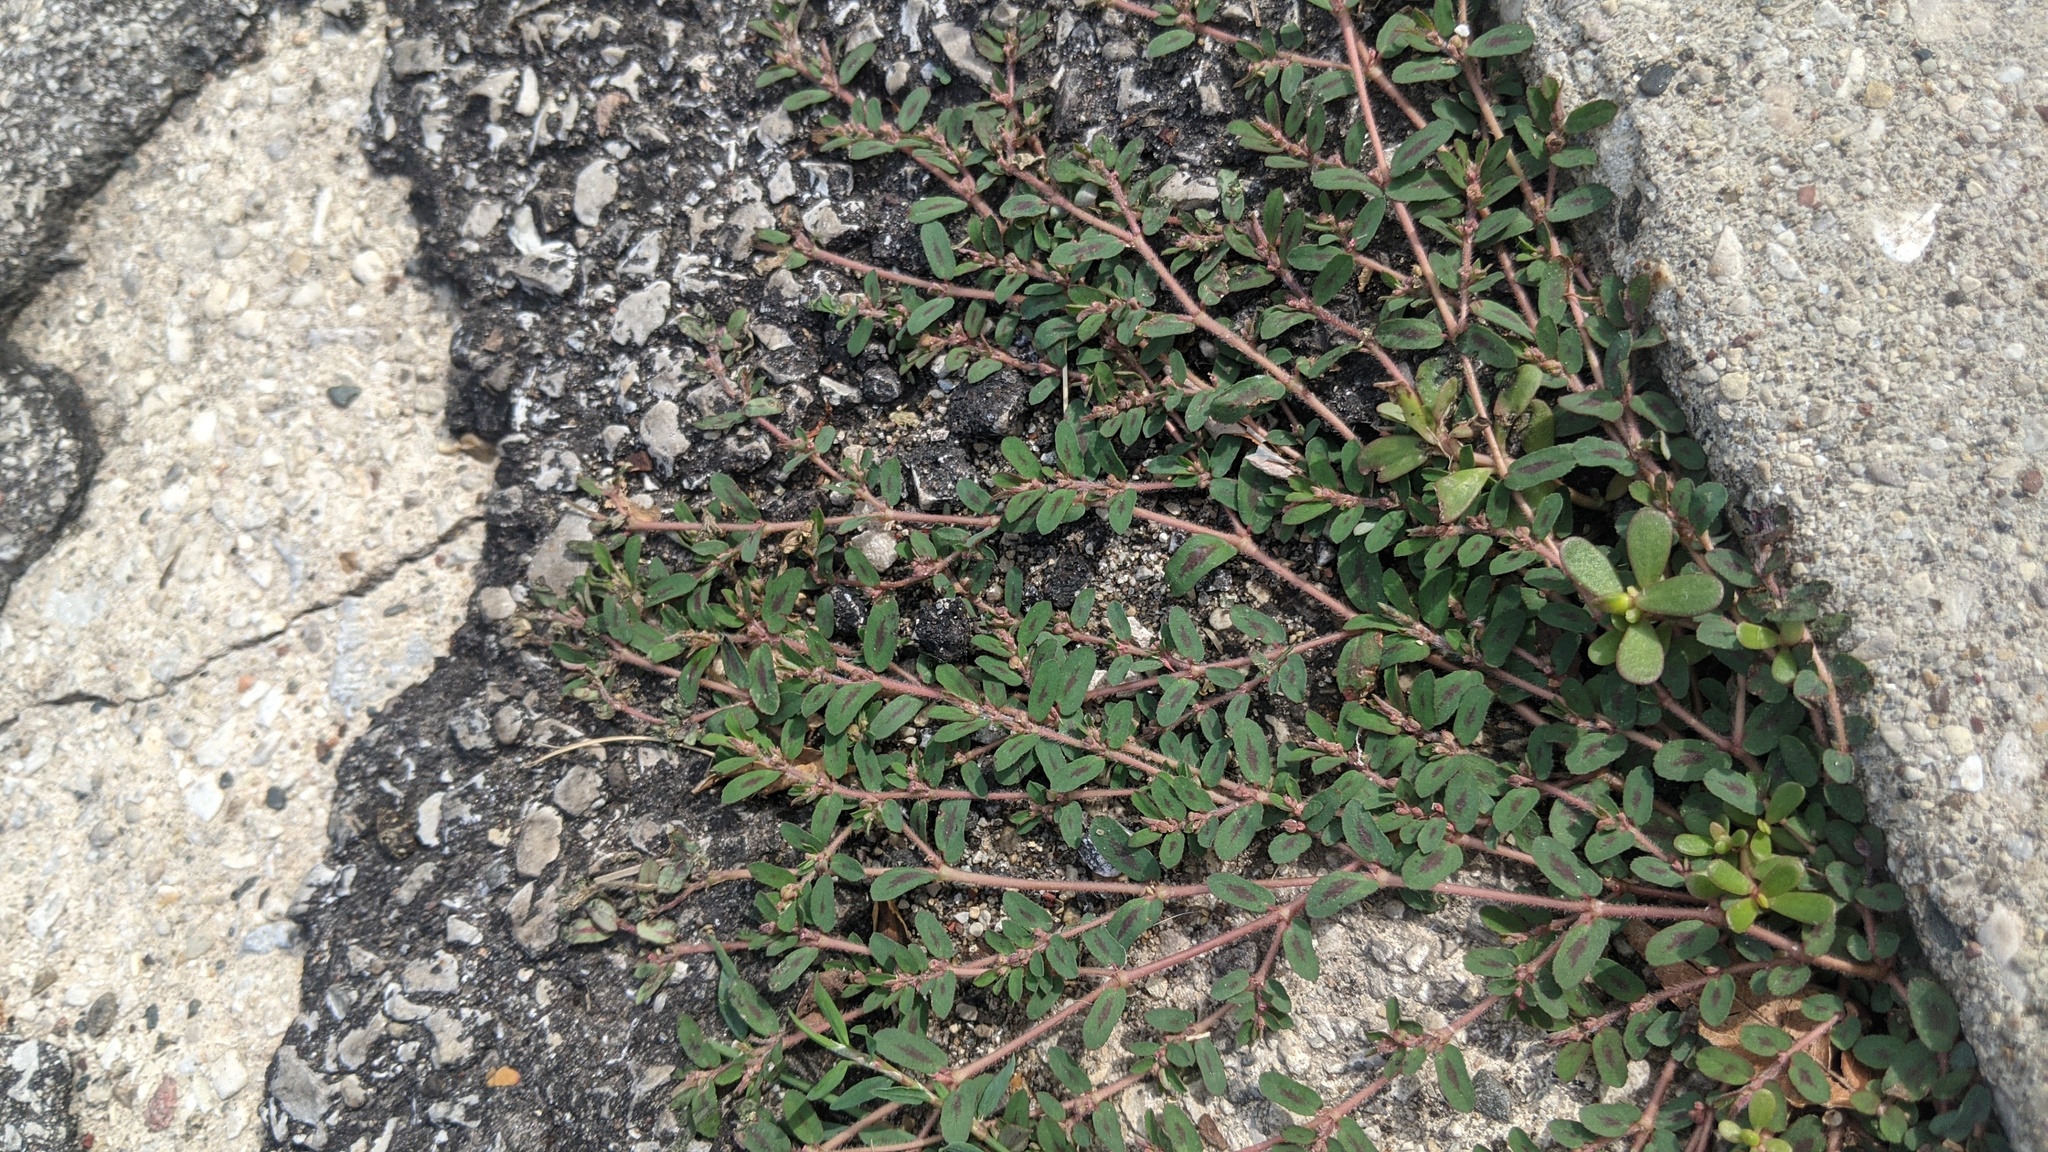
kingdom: Plantae
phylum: Tracheophyta
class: Magnoliopsida
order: Malpighiales
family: Euphorbiaceae
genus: Euphorbia
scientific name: Euphorbia maculata
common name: Spotted spurge
